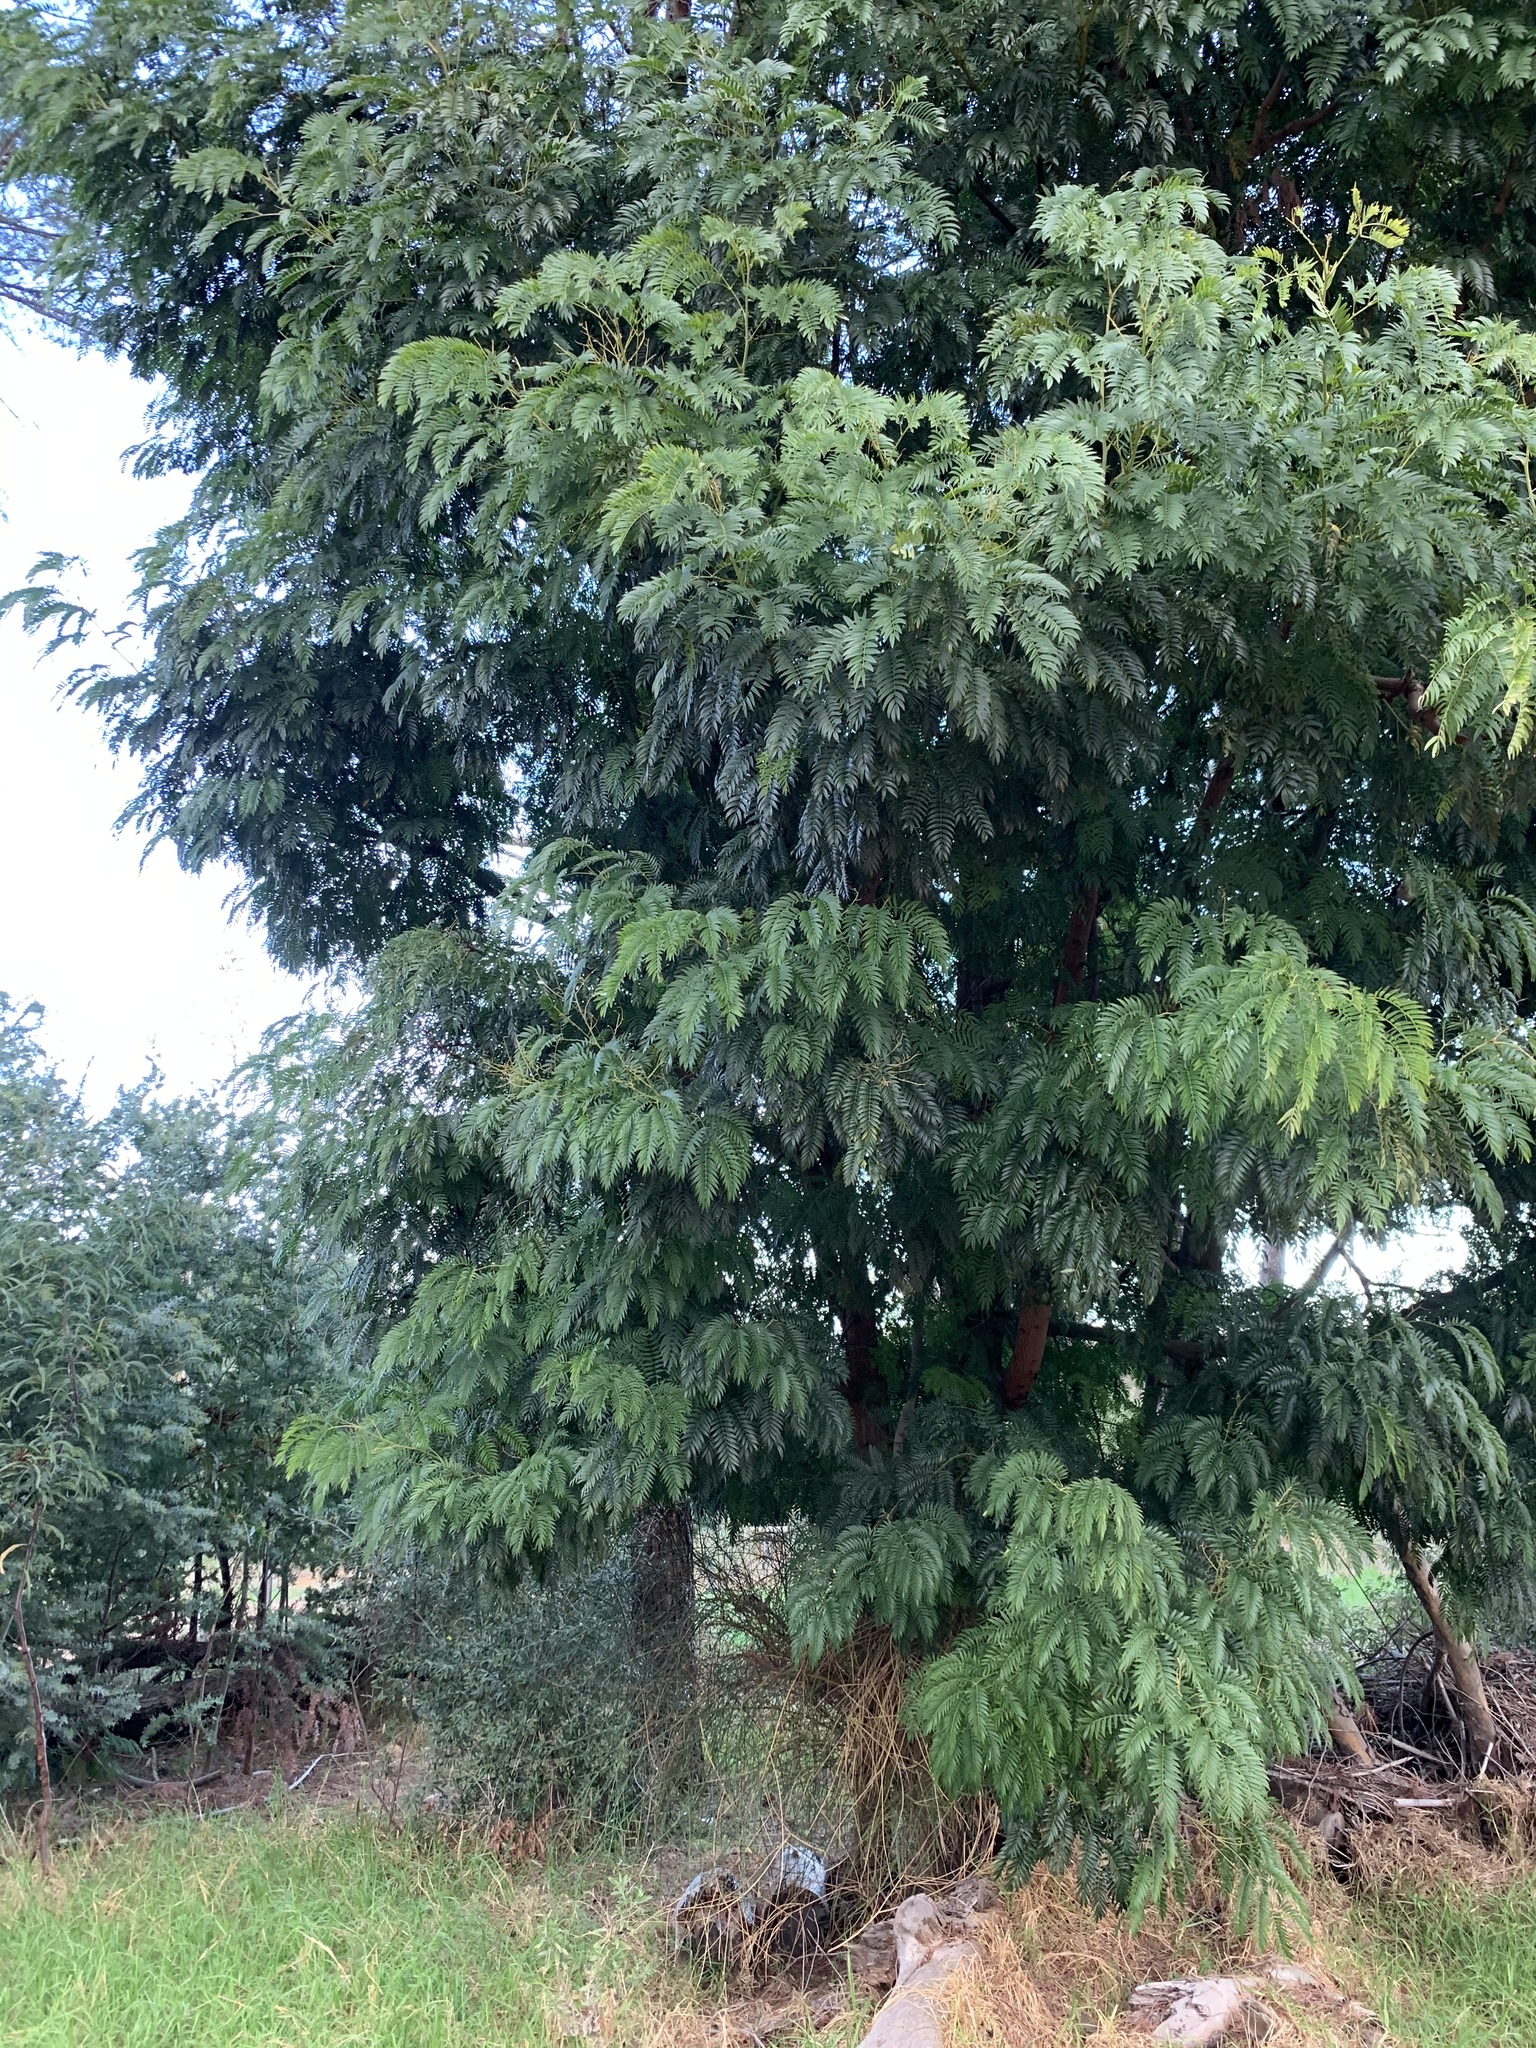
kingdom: Plantae
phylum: Tracheophyta
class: Magnoliopsida
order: Fabales
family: Fabaceae
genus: Acacia
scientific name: Acacia elata
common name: Cedar wattle
